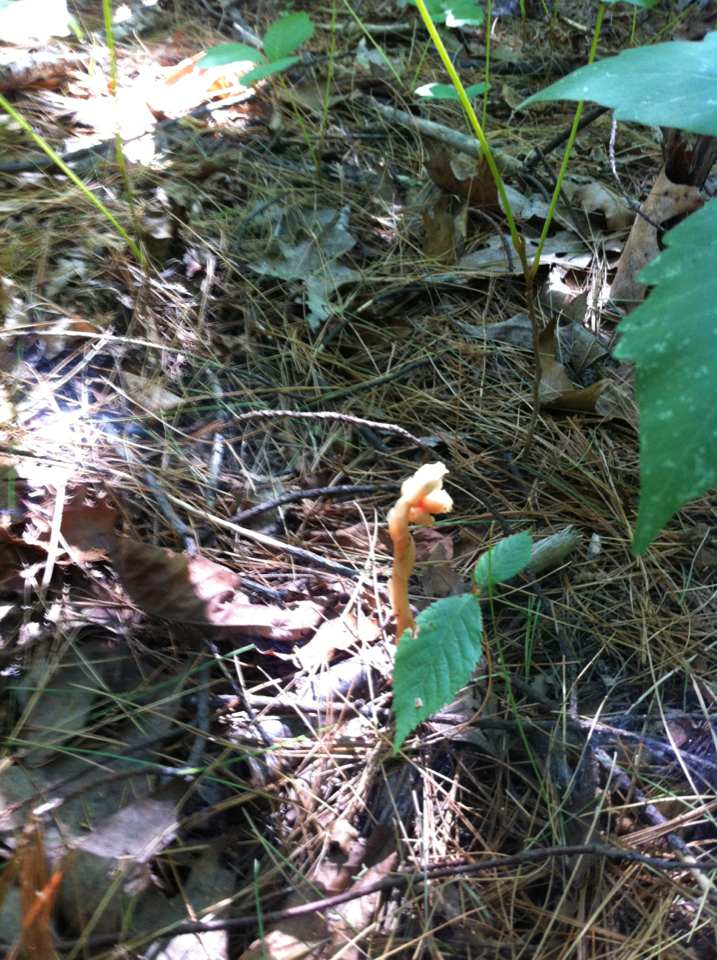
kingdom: Plantae
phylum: Tracheophyta
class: Magnoliopsida
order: Ericales
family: Ericaceae
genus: Hypopitys
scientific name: Hypopitys monotropa
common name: Yellow bird's-nest
